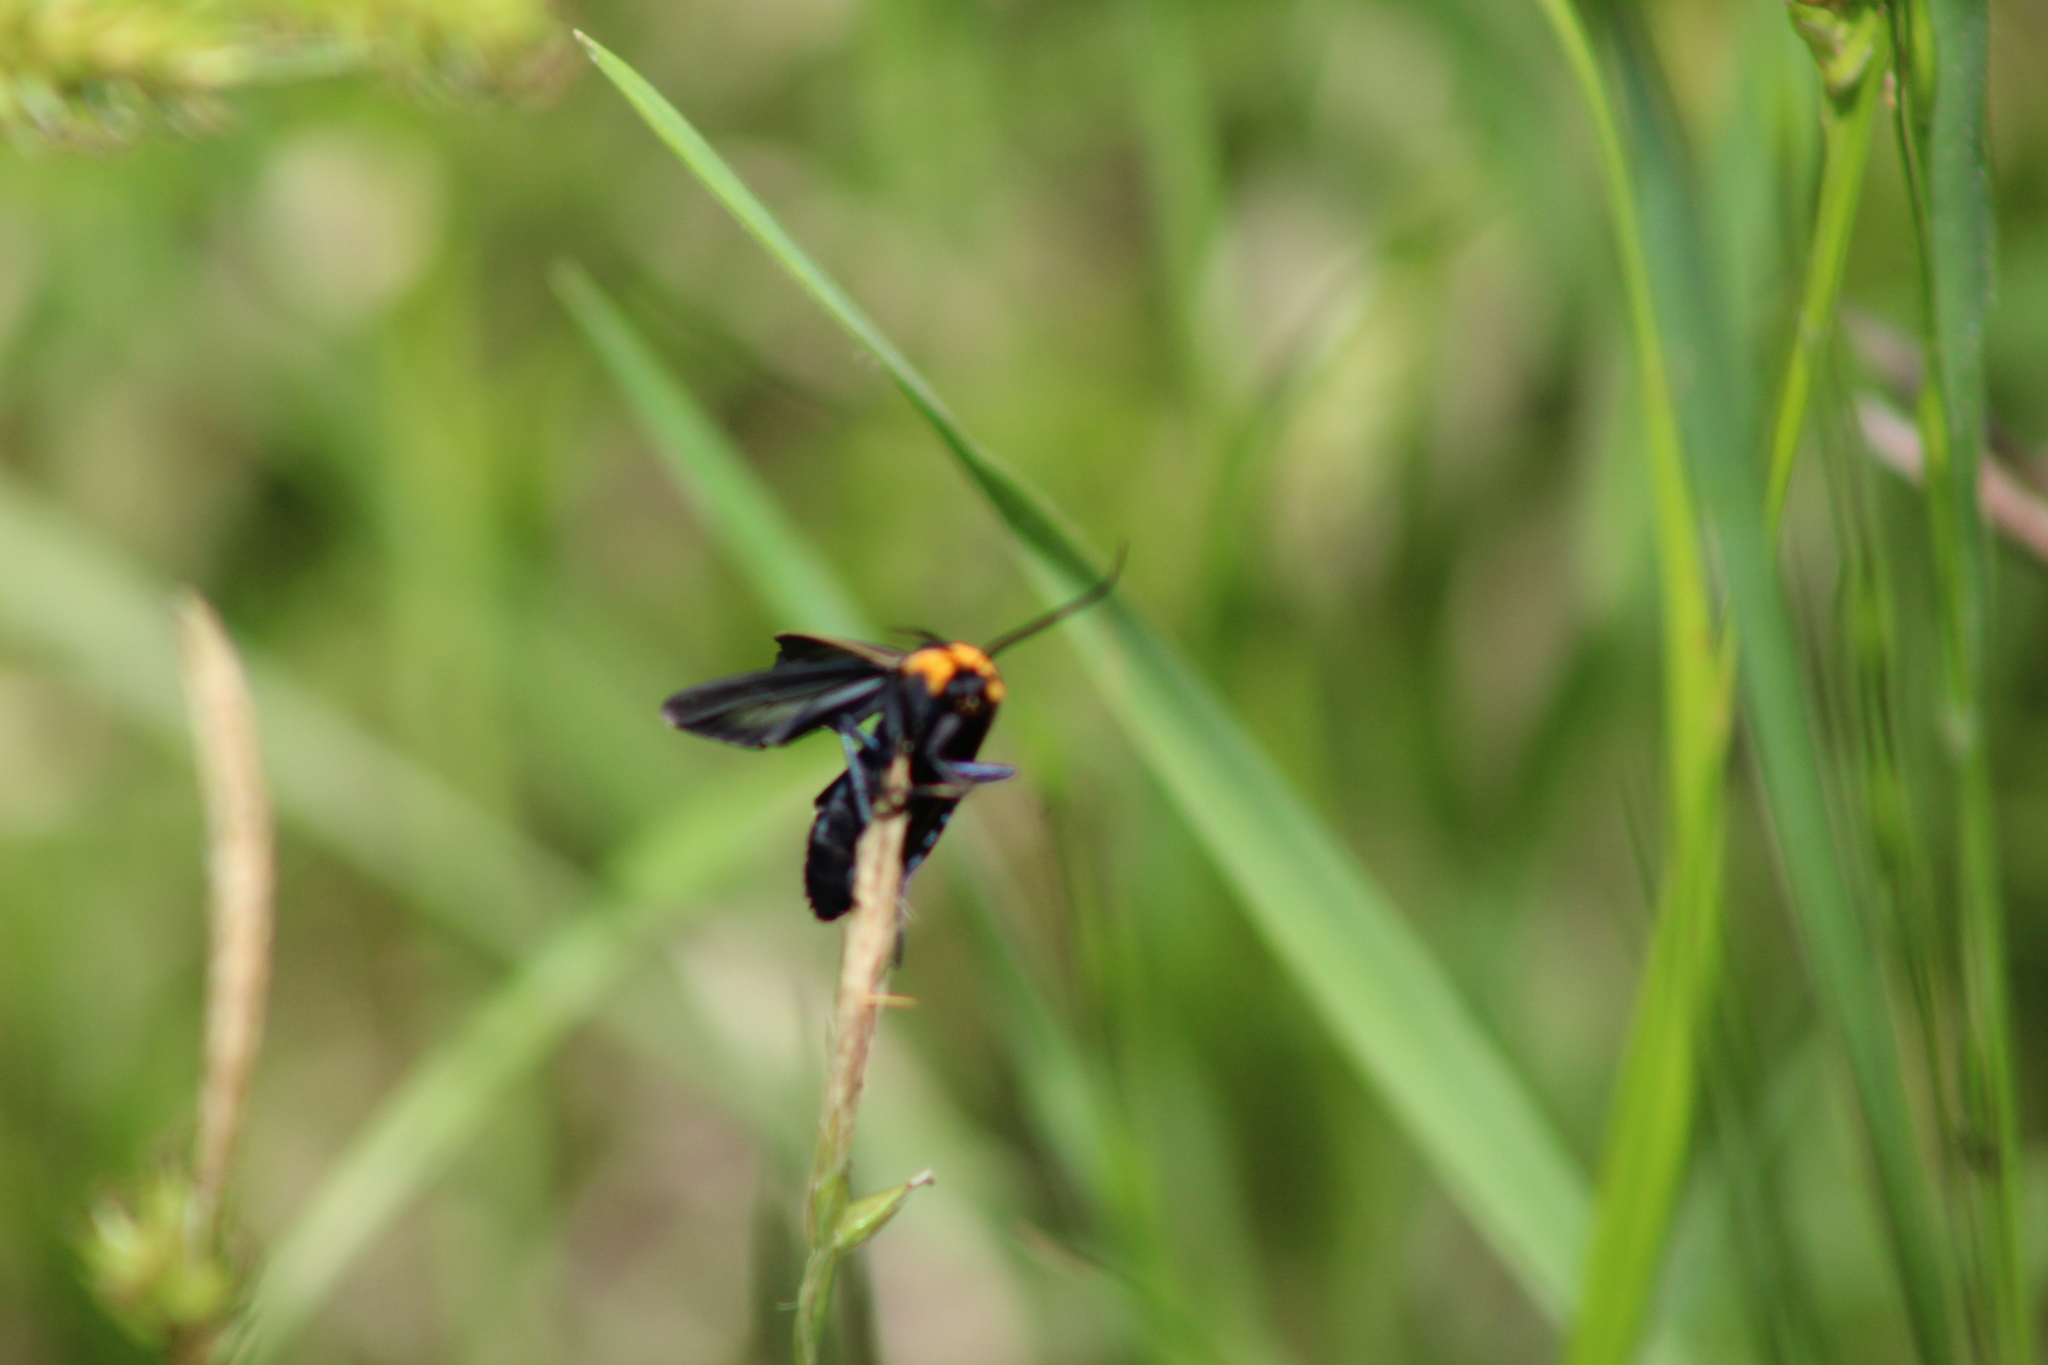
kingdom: Animalia
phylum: Arthropoda
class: Insecta
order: Lepidoptera
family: Erebidae
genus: Cisseps
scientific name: Cisseps fulvicollis
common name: Yellow-collared scape moth
